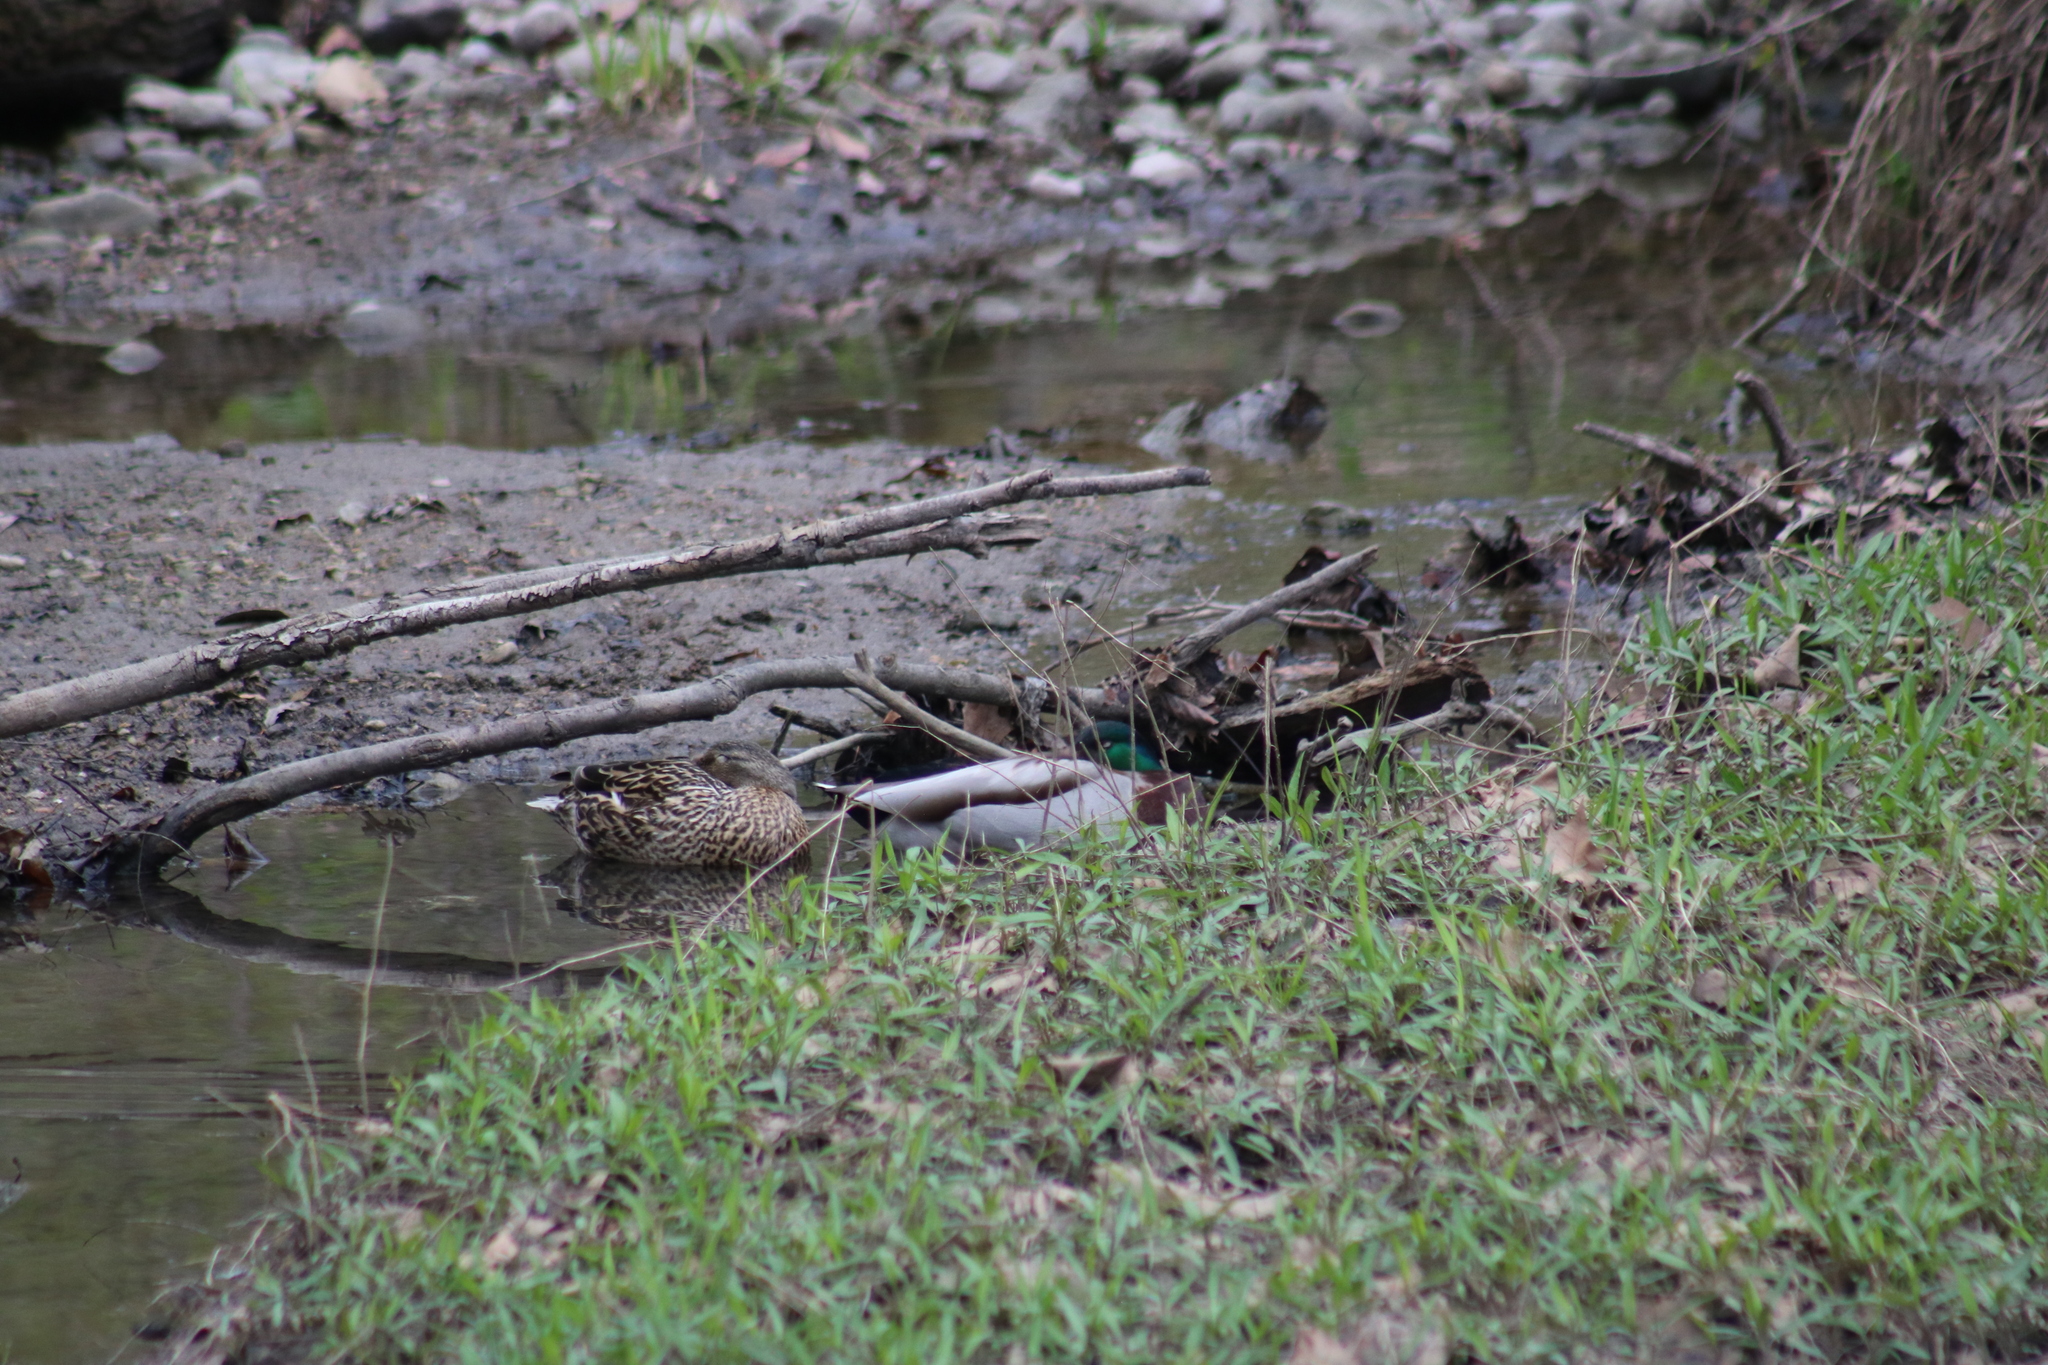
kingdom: Animalia
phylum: Chordata
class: Aves
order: Anseriformes
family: Anatidae
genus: Anas
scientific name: Anas platyrhynchos
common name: Mallard
